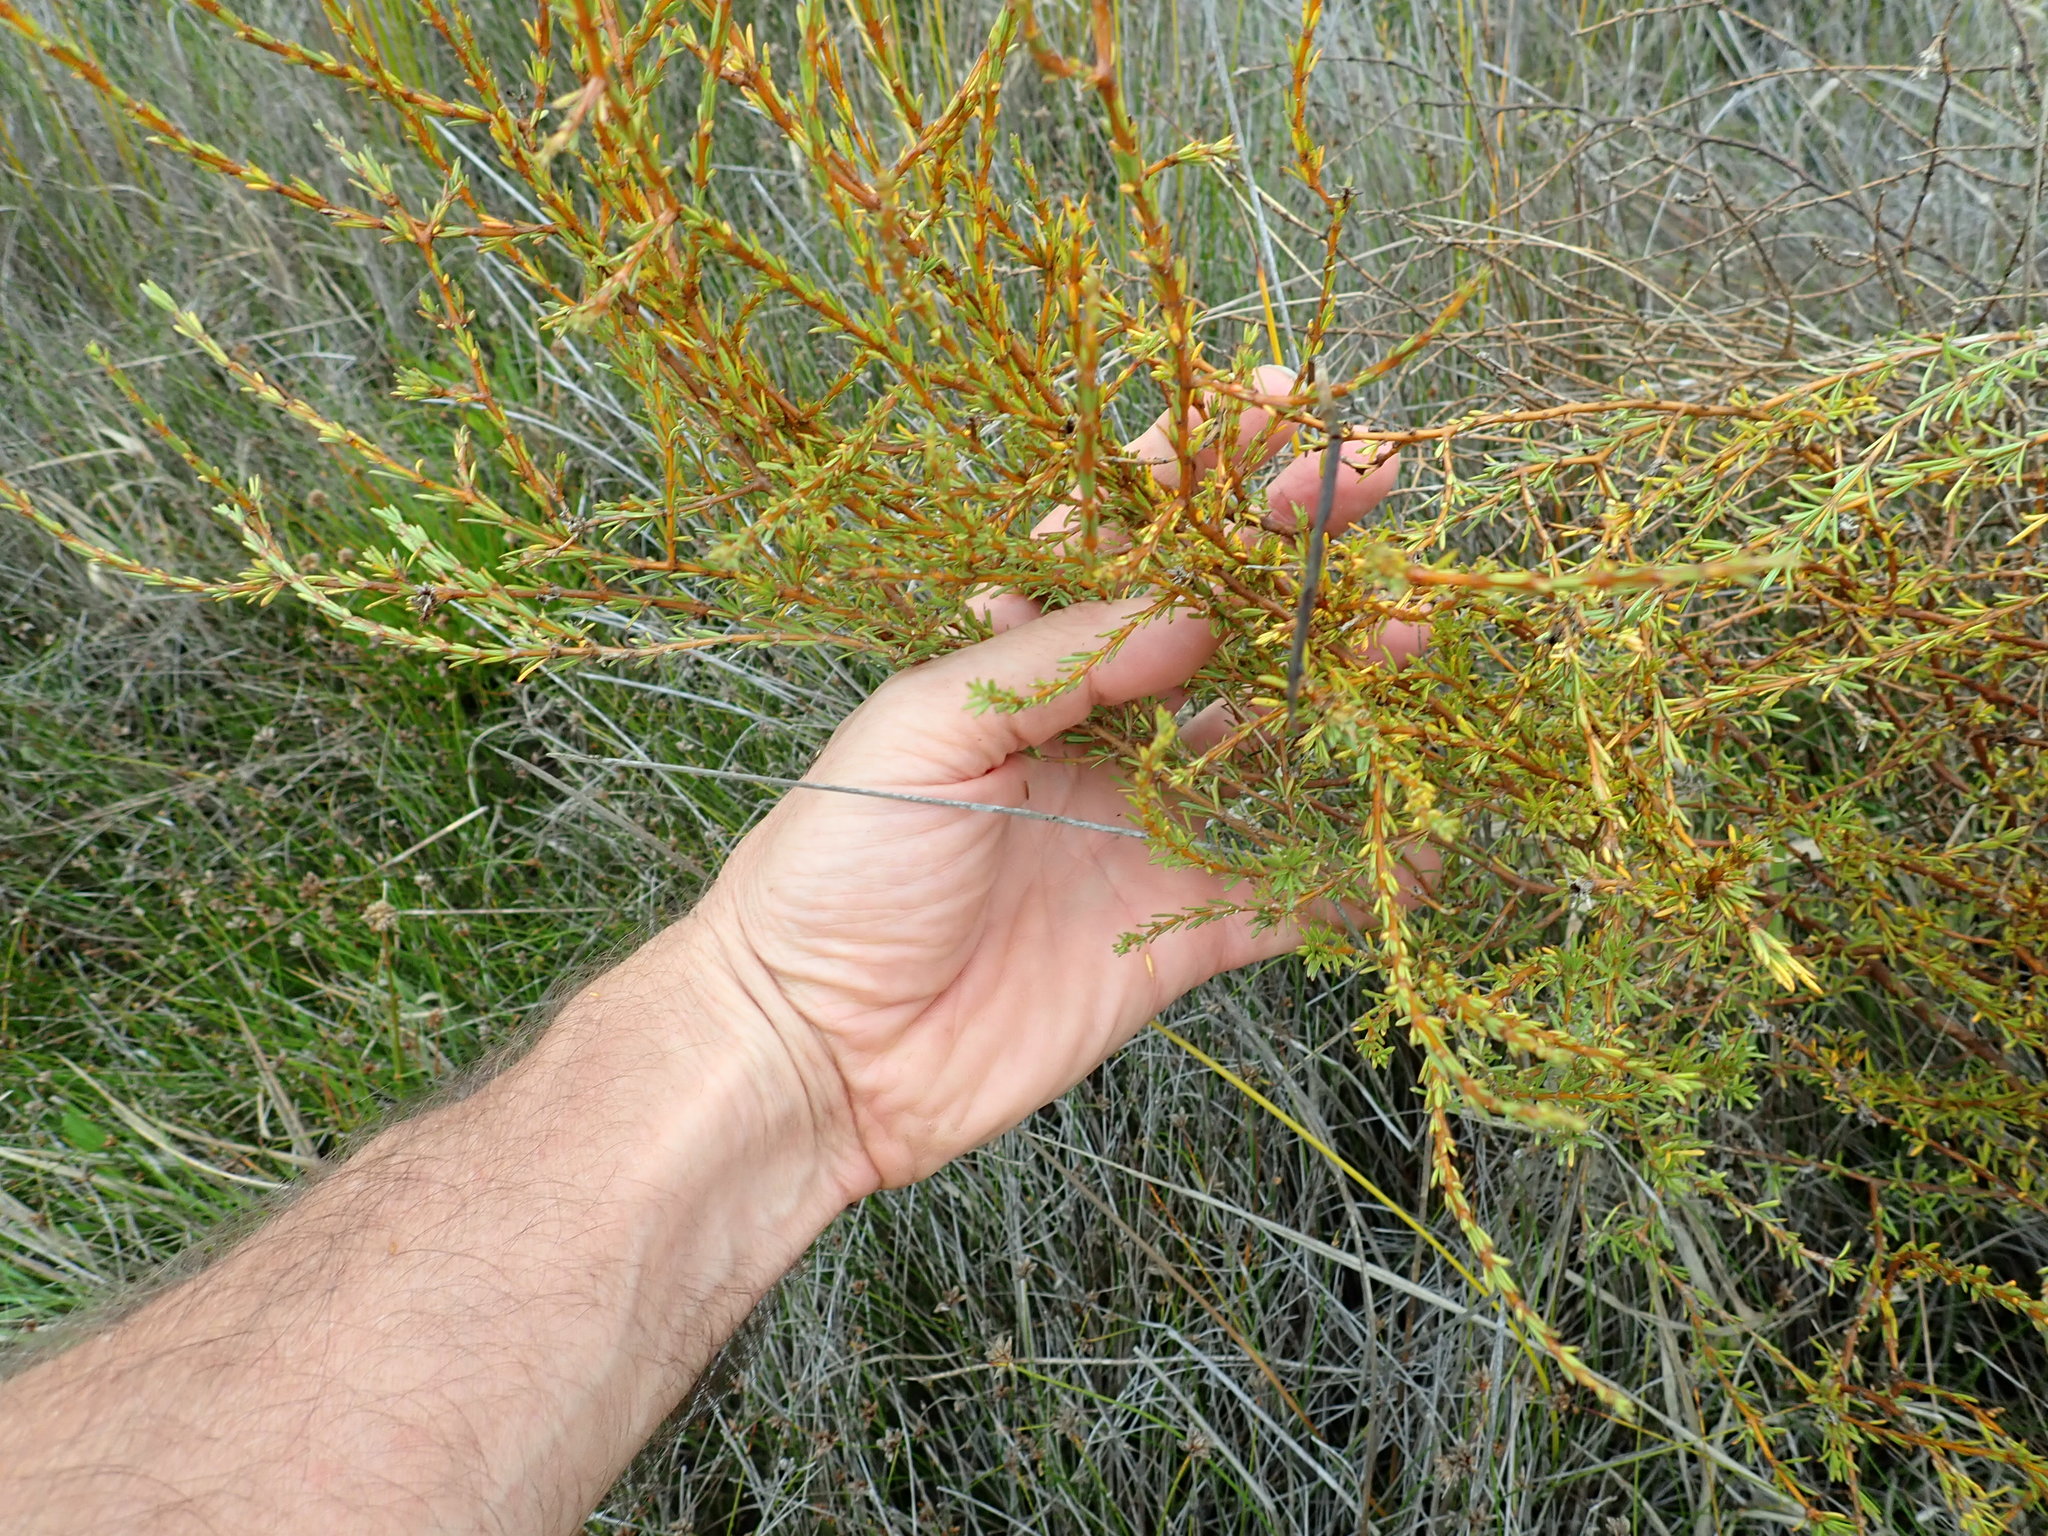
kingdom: Plantae
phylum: Tracheophyta
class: Magnoliopsida
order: Gentianales
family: Rubiaceae
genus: Coprosma
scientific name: Coprosma acerosa
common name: Sand coprosma
